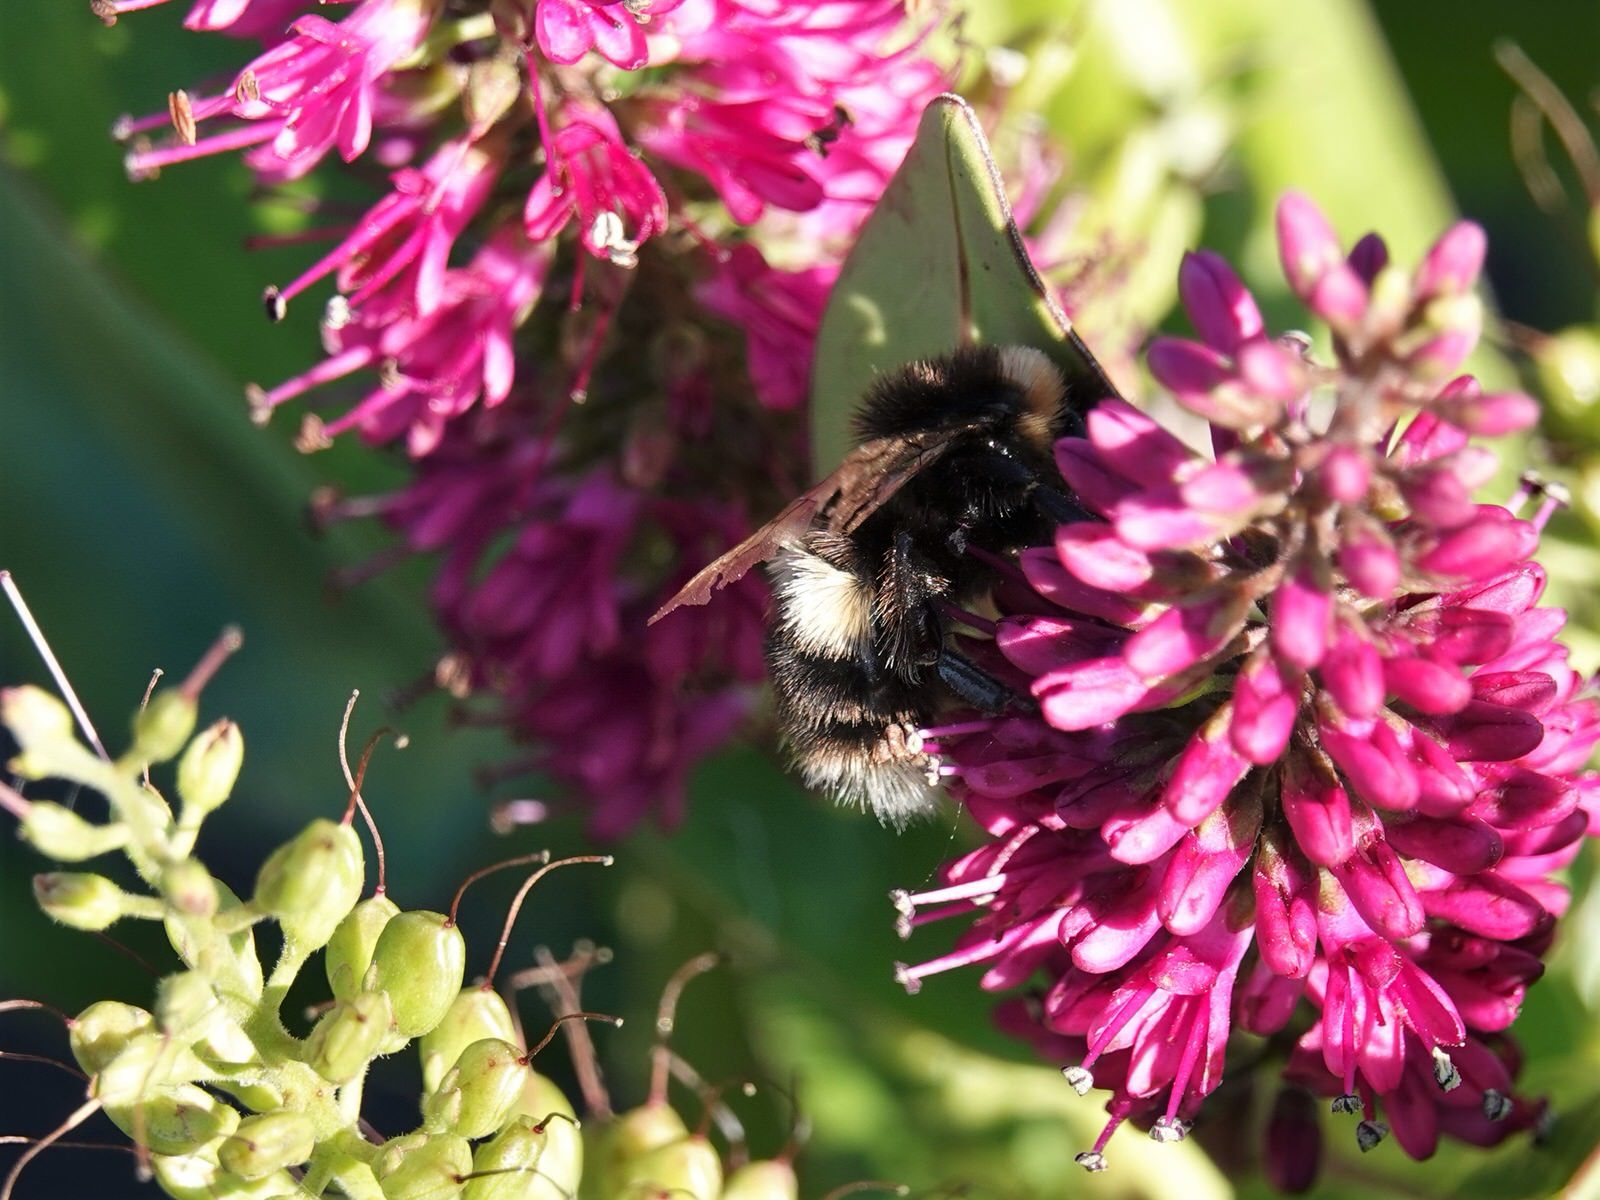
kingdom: Animalia
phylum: Arthropoda
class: Insecta
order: Hymenoptera
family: Apidae
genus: Bombus
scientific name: Bombus terrestris
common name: Buff-tailed bumblebee
